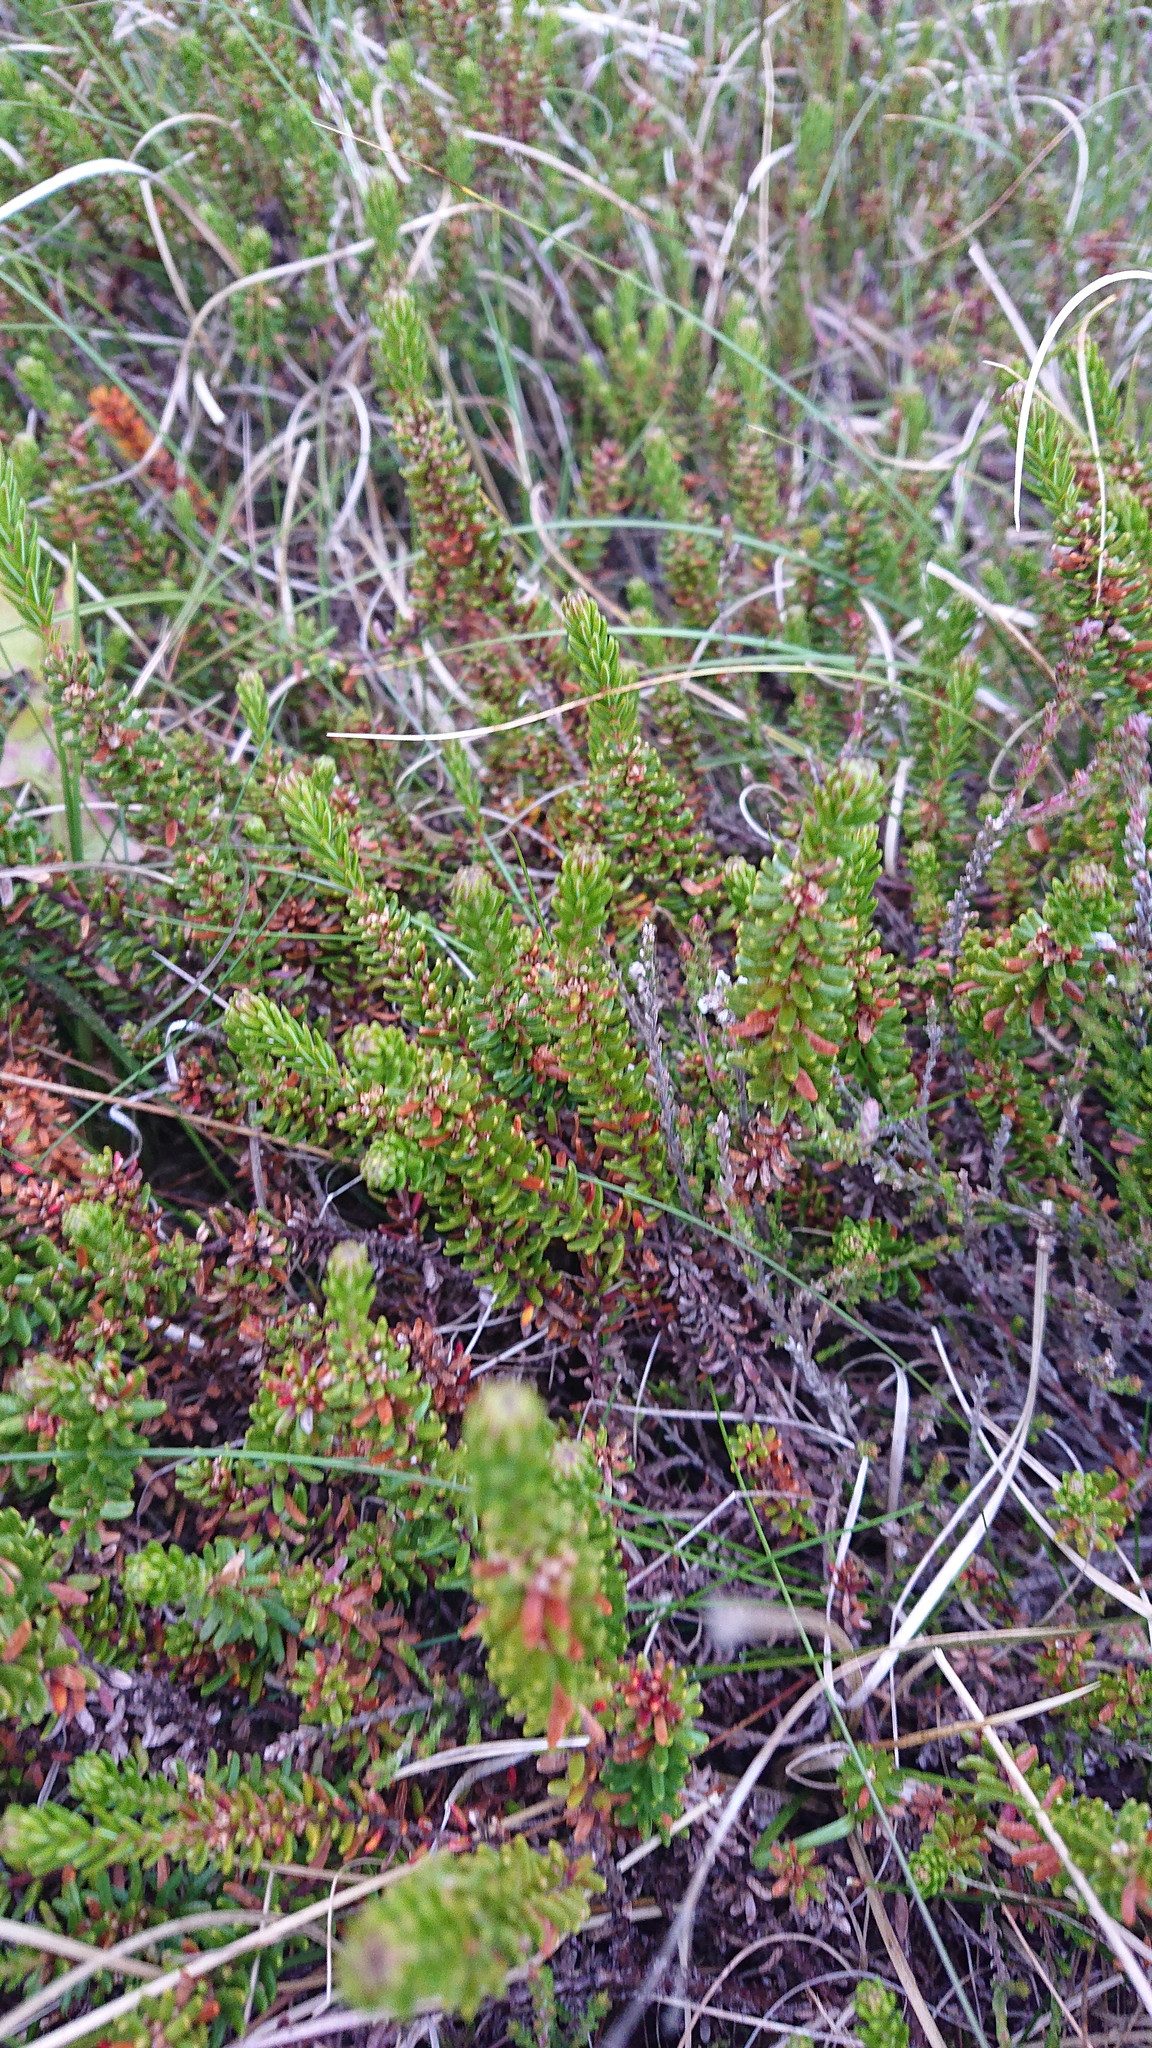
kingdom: Plantae
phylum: Tracheophyta
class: Magnoliopsida
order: Ericales
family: Ericaceae
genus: Empetrum
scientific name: Empetrum nigrum
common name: Black crowberry
